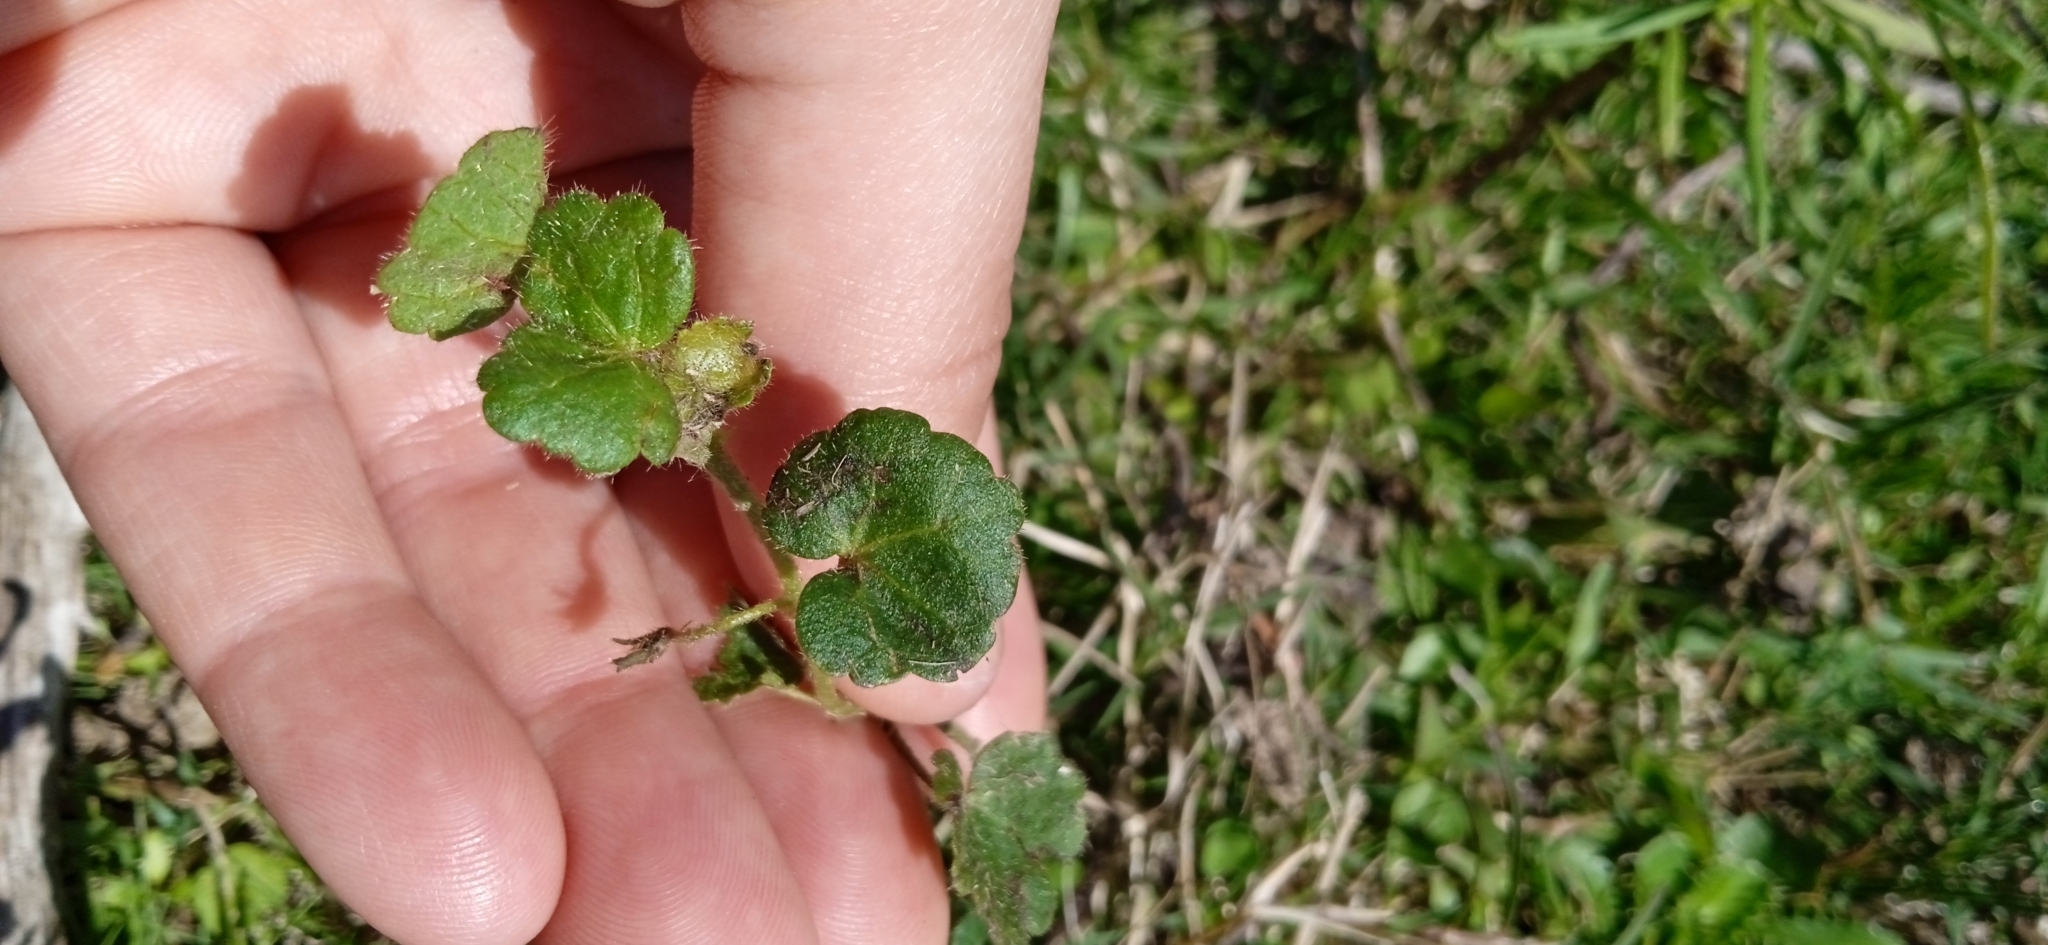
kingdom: Plantae
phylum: Tracheophyta
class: Magnoliopsida
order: Malvales
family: Malvaceae
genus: Pavonia
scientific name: Pavonia glechomoides
